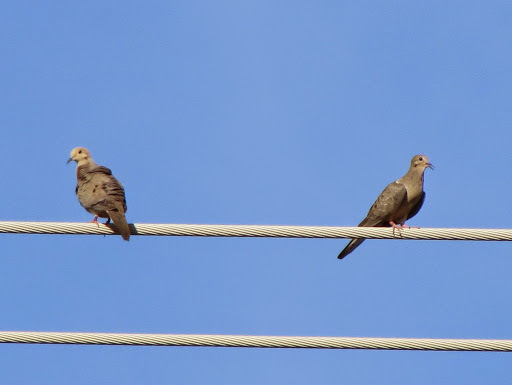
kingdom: Animalia
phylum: Chordata
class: Aves
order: Columbiformes
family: Columbidae
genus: Zenaida
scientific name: Zenaida macroura
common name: Mourning dove
